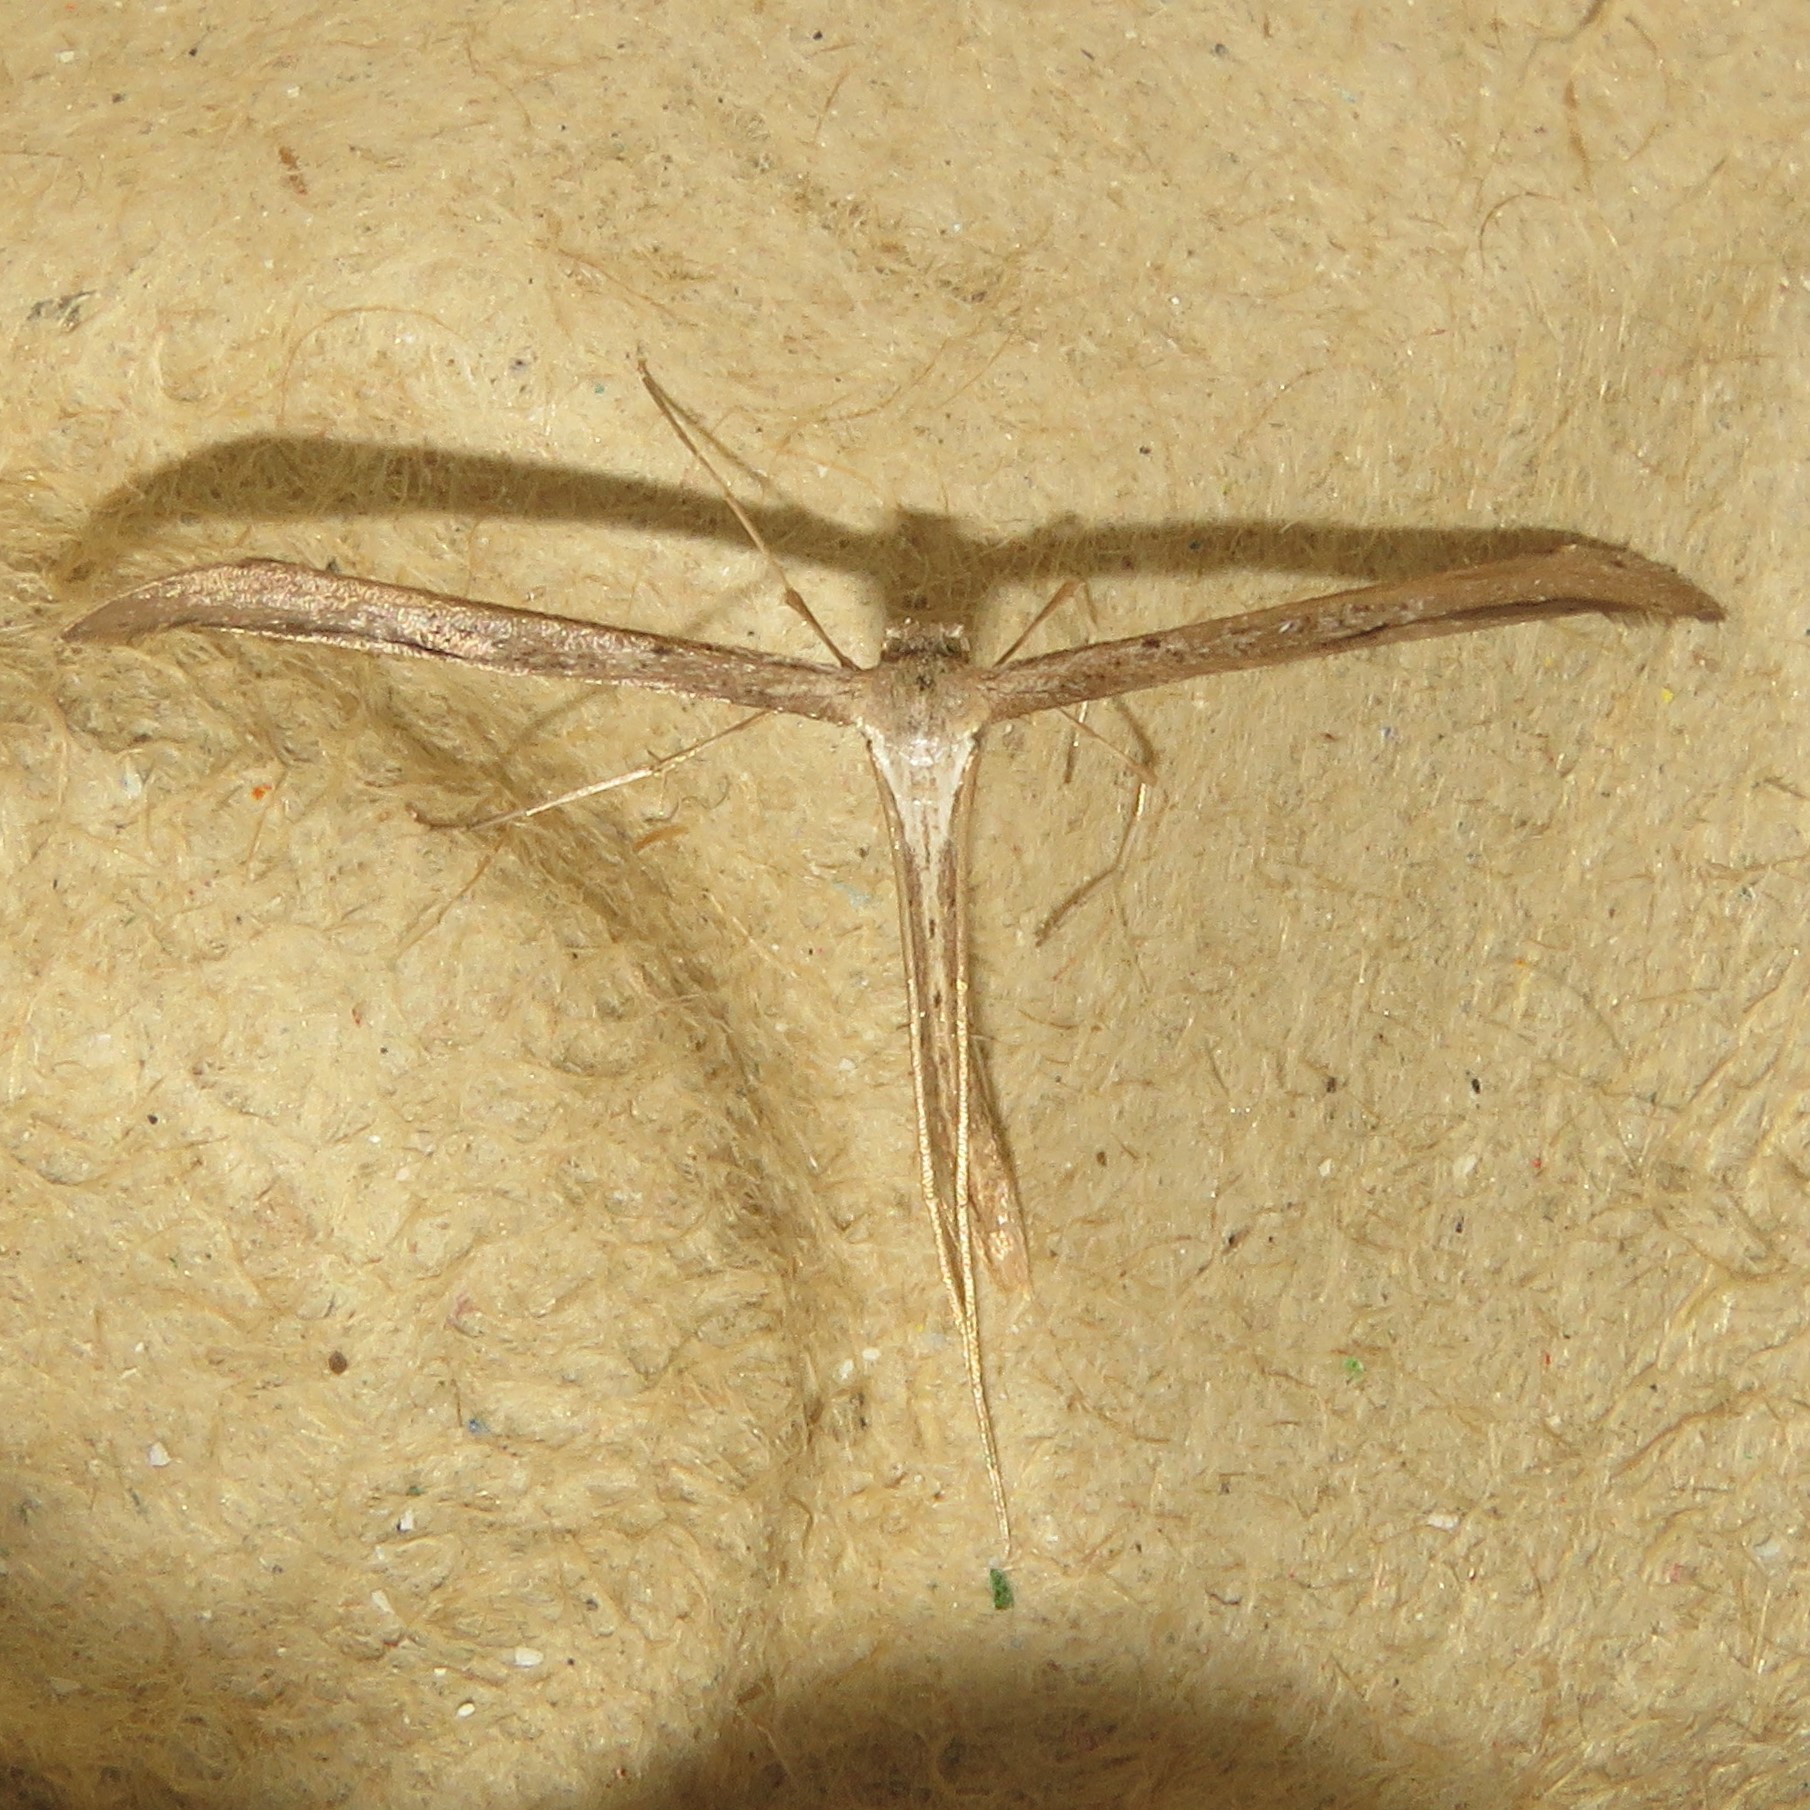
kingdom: Animalia
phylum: Arthropoda
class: Insecta
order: Lepidoptera
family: Pterophoridae
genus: Emmelina
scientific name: Emmelina monodactyla
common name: Common plume
